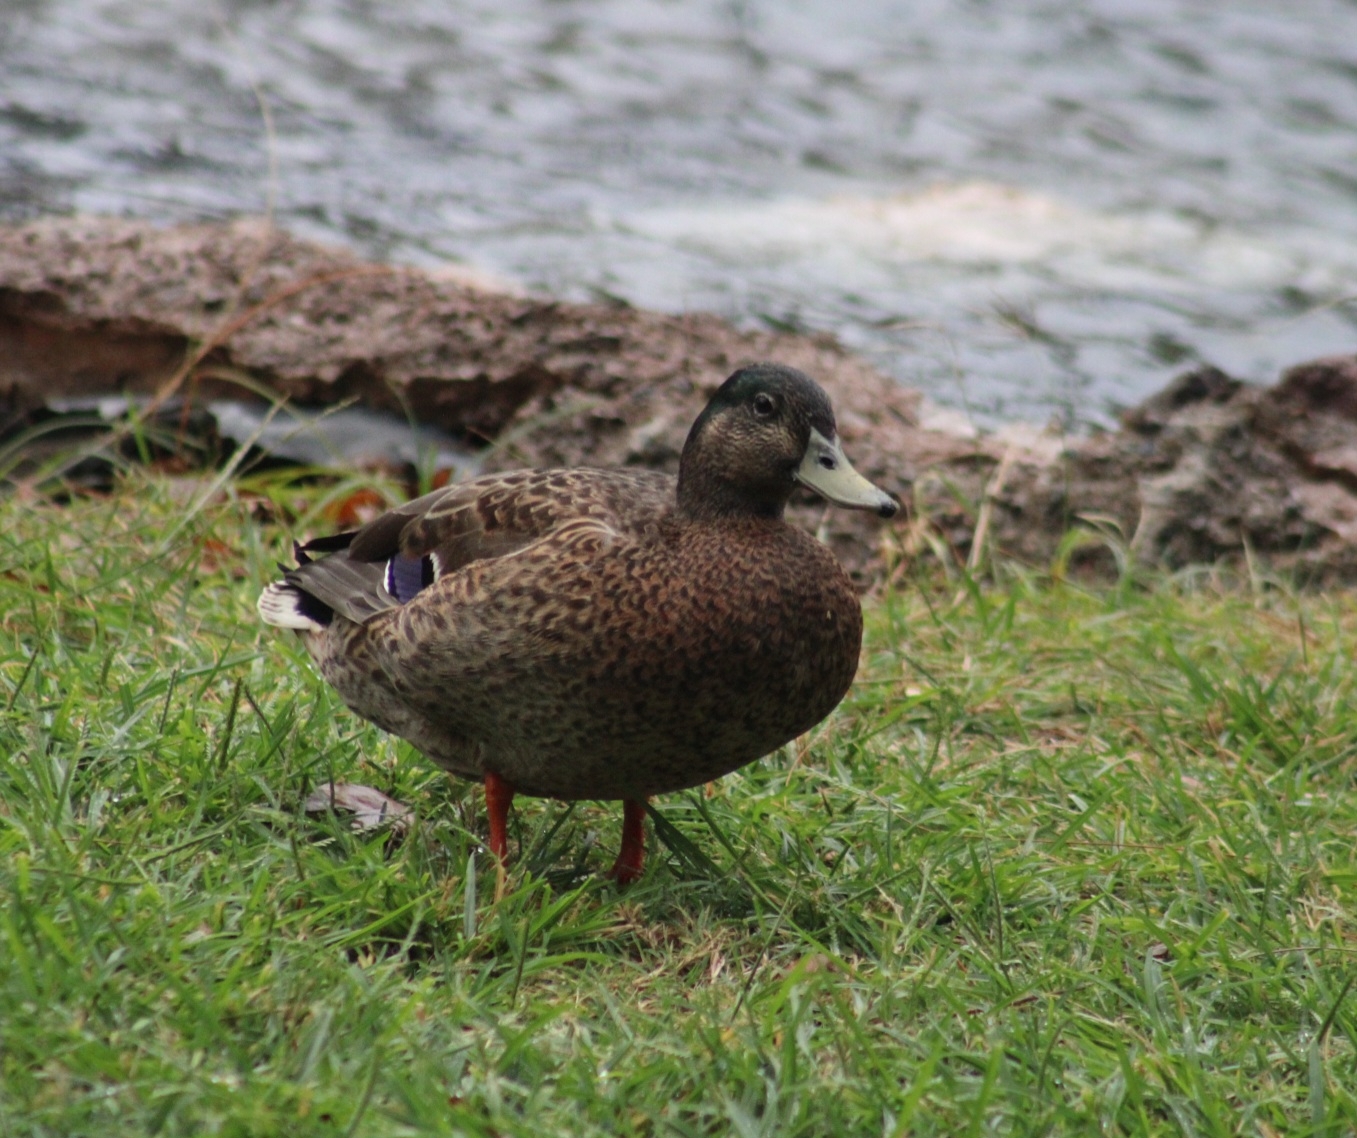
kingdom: Animalia
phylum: Chordata
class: Aves
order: Anseriformes
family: Anatidae
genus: Anas
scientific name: Anas
